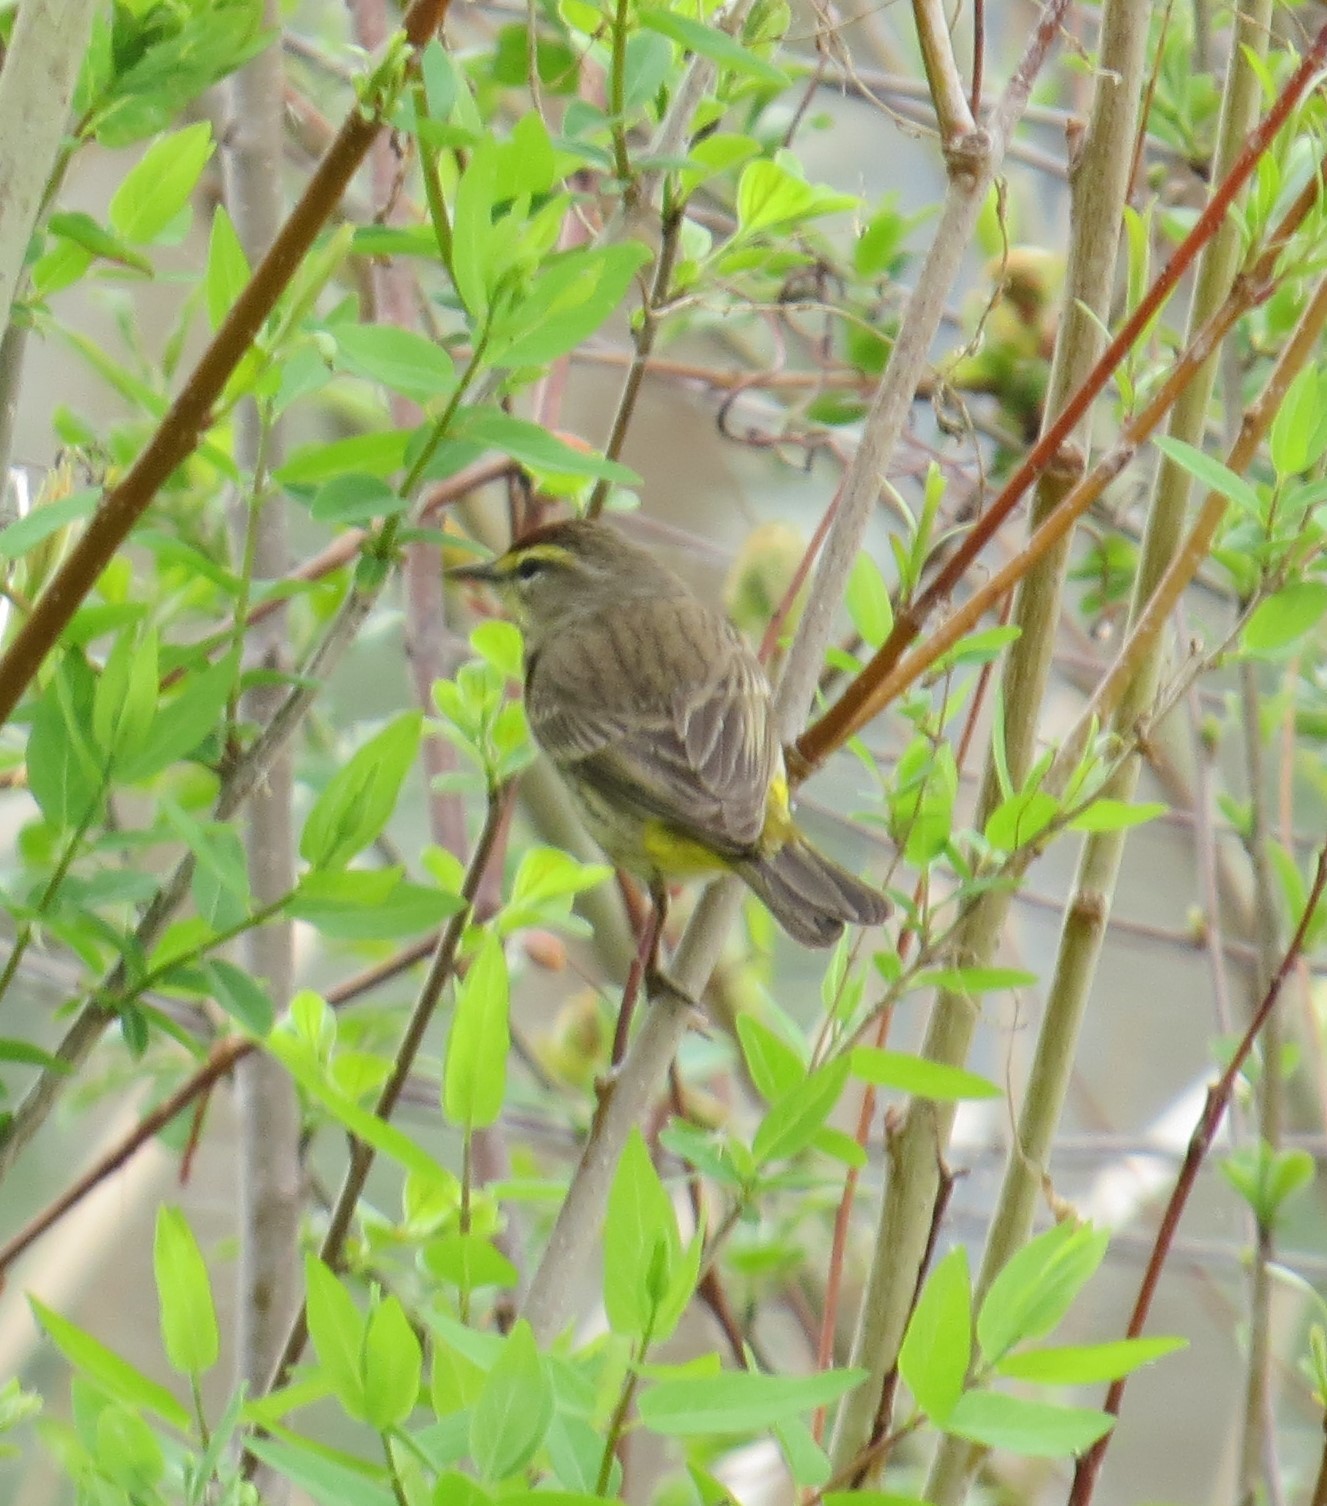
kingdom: Animalia
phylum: Chordata
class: Aves
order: Passeriformes
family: Parulidae
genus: Setophaga
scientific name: Setophaga palmarum
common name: Palm warbler
